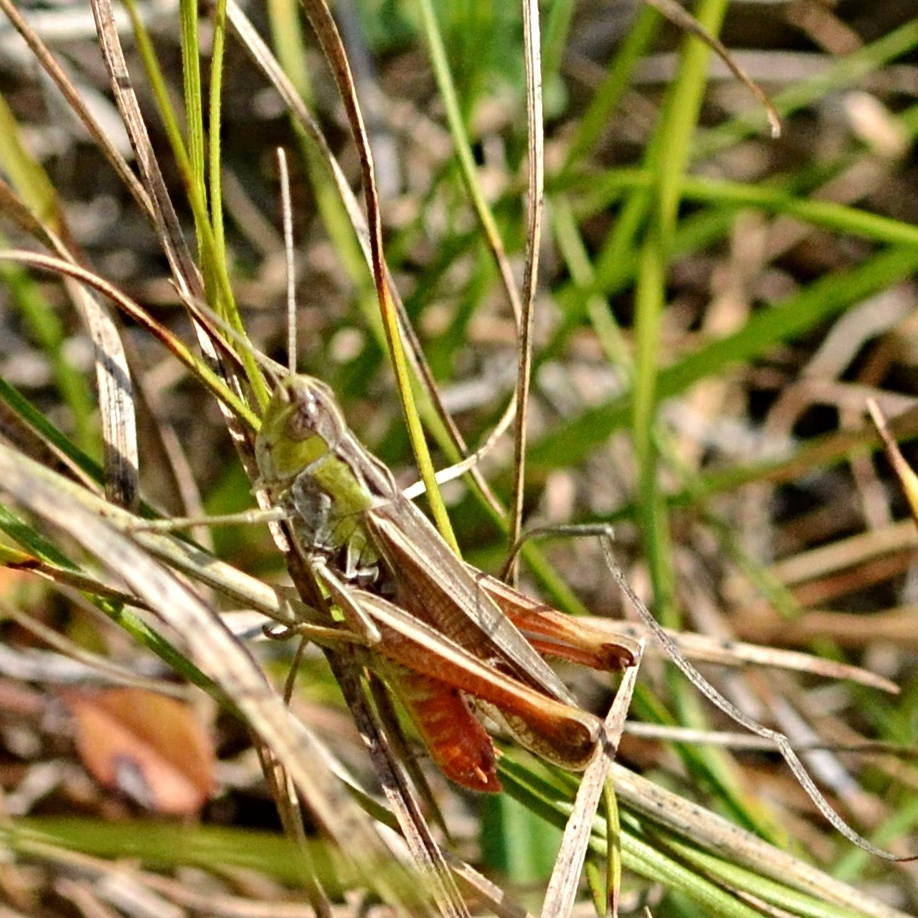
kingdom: Animalia
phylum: Arthropoda
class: Insecta
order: Orthoptera
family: Acrididae
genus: Stenobothrus
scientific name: Stenobothrus lineatus
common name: Stripe-winged grasshopper
